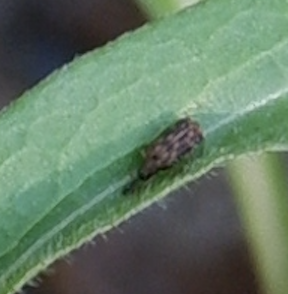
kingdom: Animalia
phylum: Arthropoda
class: Insecta
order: Coleoptera
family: Chrysomelidae
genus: Sumitrosis
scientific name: Sumitrosis inaequalis
